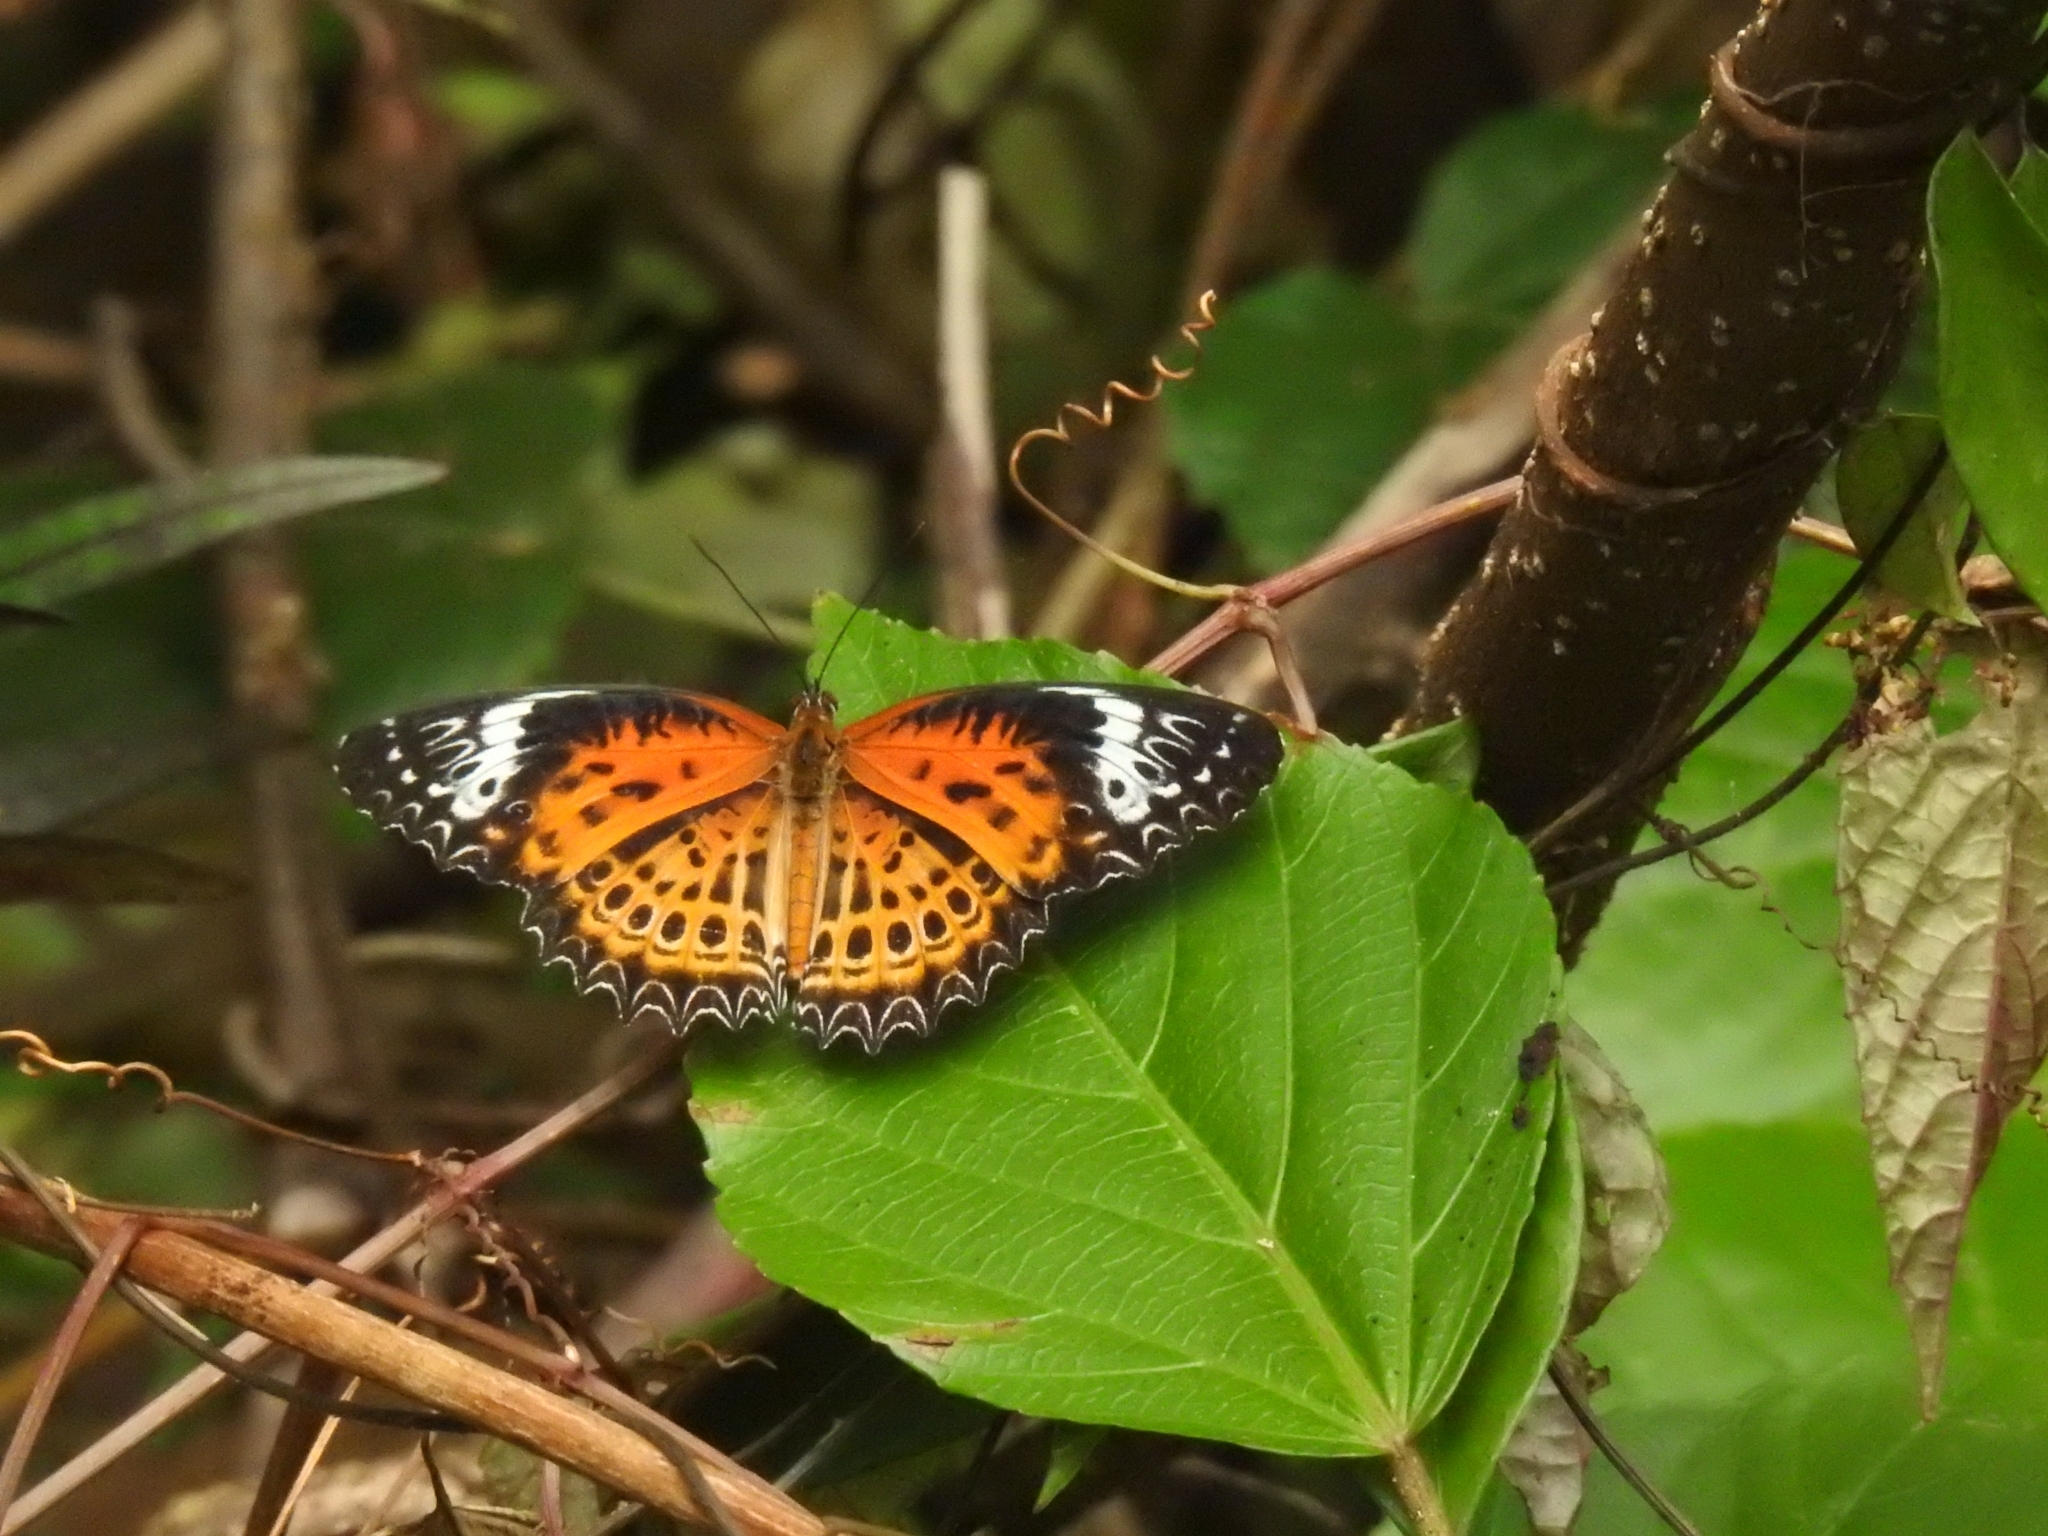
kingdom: Animalia
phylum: Arthropoda
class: Insecta
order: Lepidoptera
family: Nymphalidae
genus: Cethosia
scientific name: Cethosia
